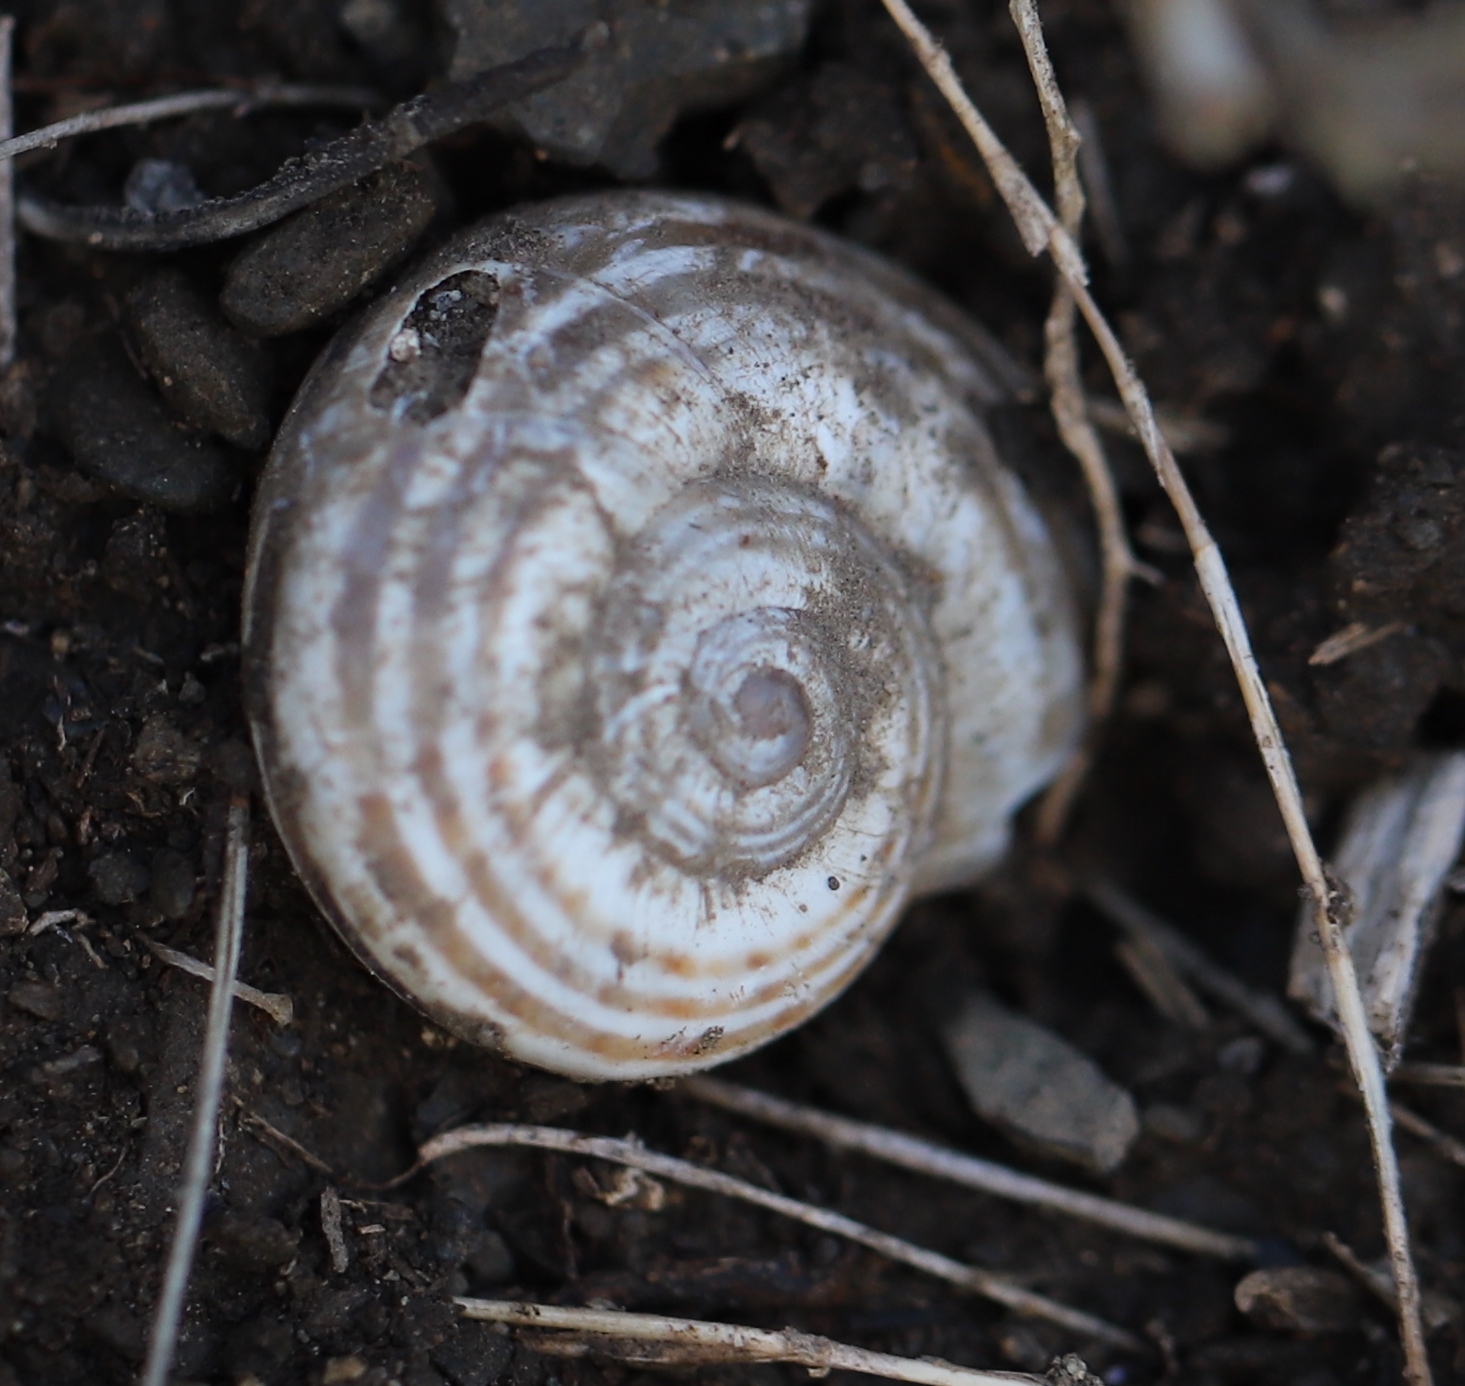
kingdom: Animalia
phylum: Mollusca
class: Gastropoda
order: Stylommatophora
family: Helicidae
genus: Pseudotachea
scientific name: Pseudotachea splendida
